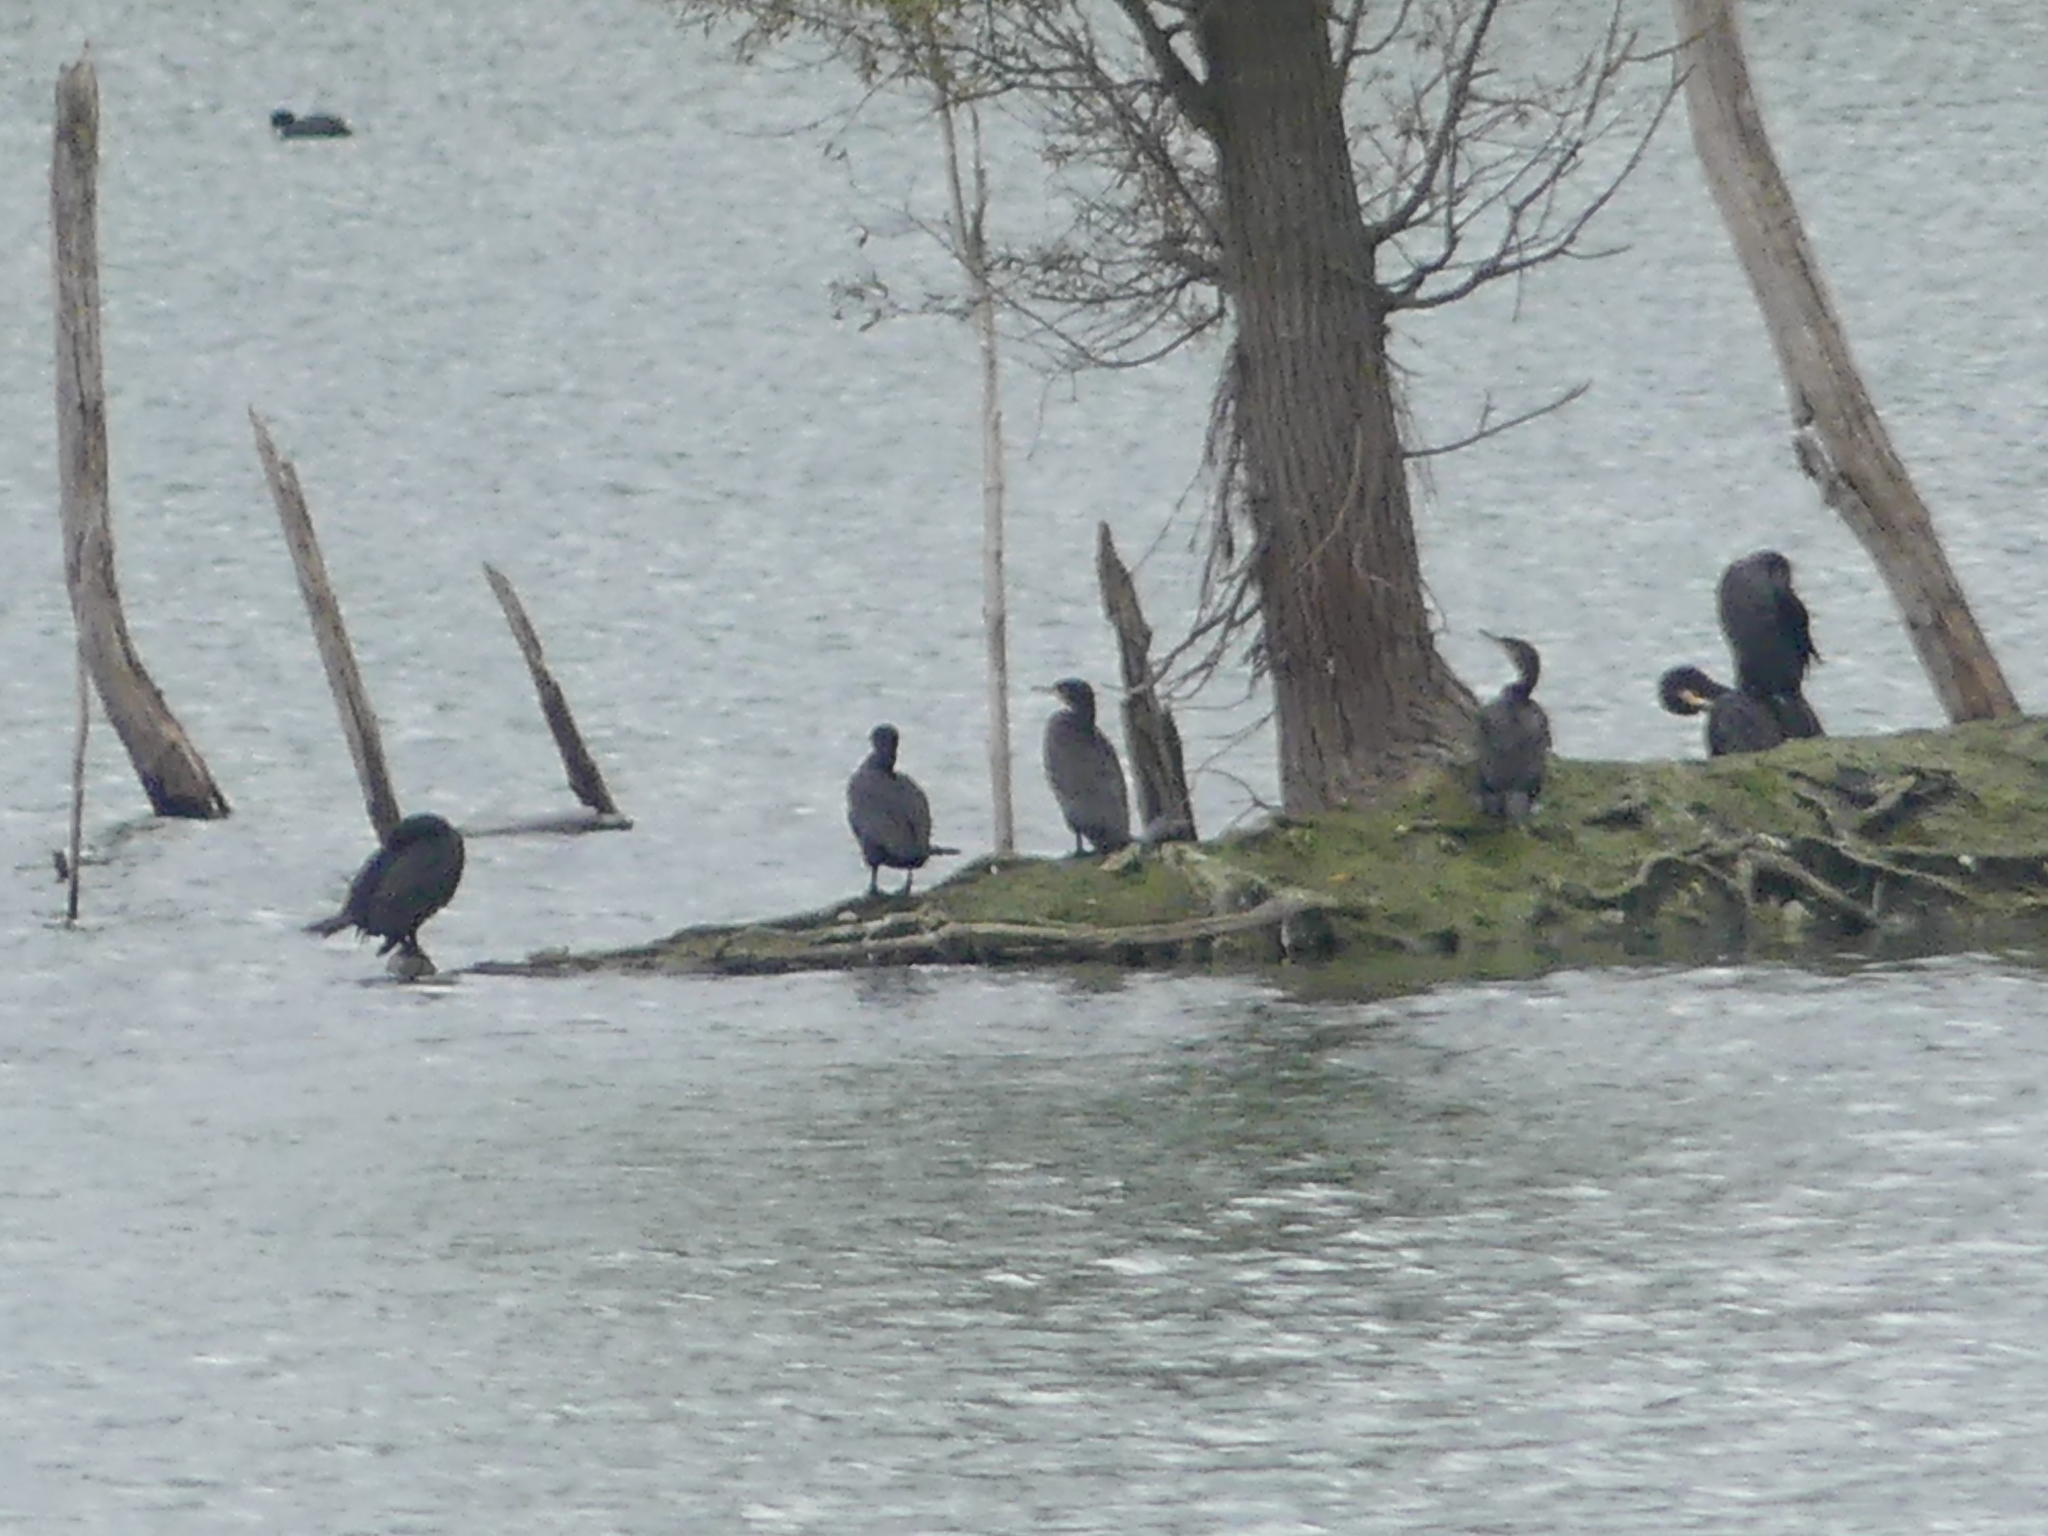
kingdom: Animalia
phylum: Chordata
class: Aves
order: Suliformes
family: Phalacrocoracidae
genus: Phalacrocorax
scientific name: Phalacrocorax carbo
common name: Great cormorant
